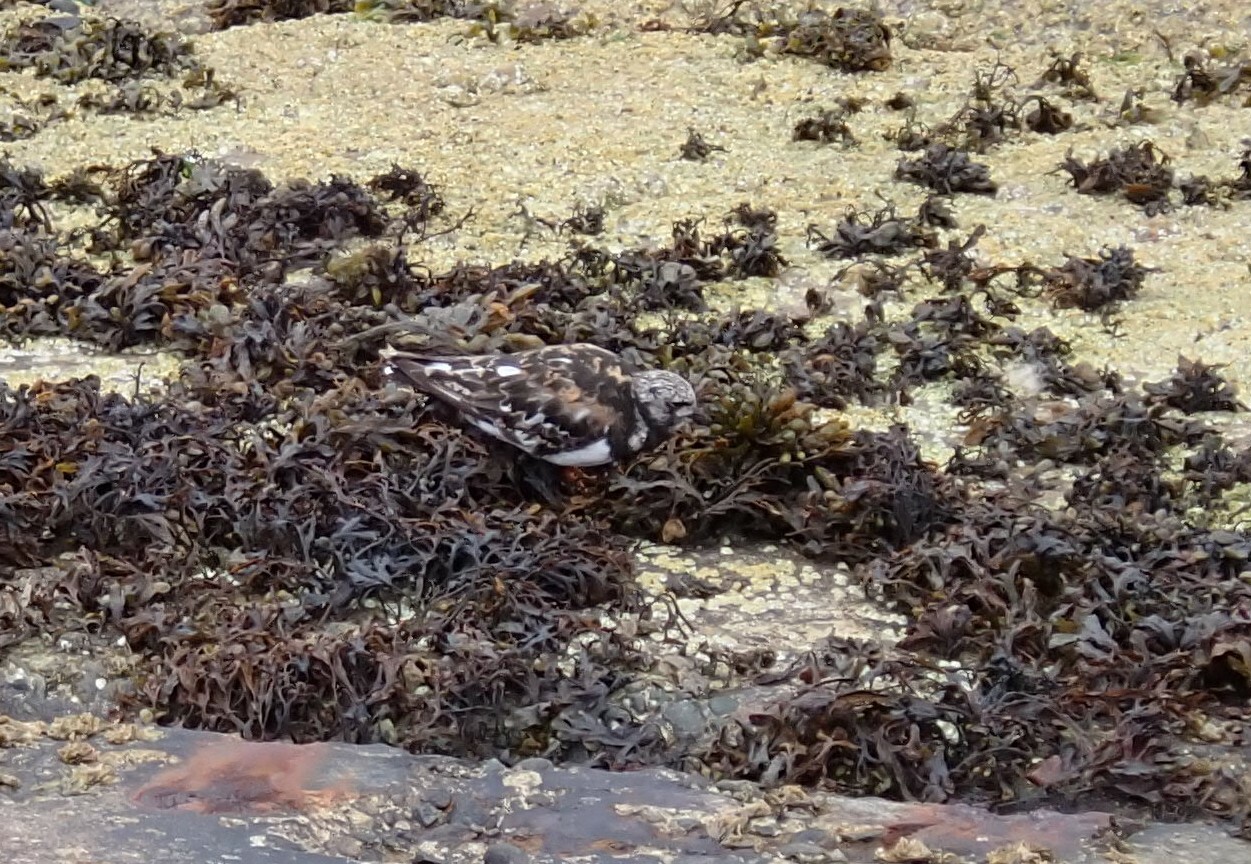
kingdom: Animalia
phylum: Chordata
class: Aves
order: Charadriiformes
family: Scolopacidae
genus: Arenaria
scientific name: Arenaria interpres
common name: Ruddy turnstone
